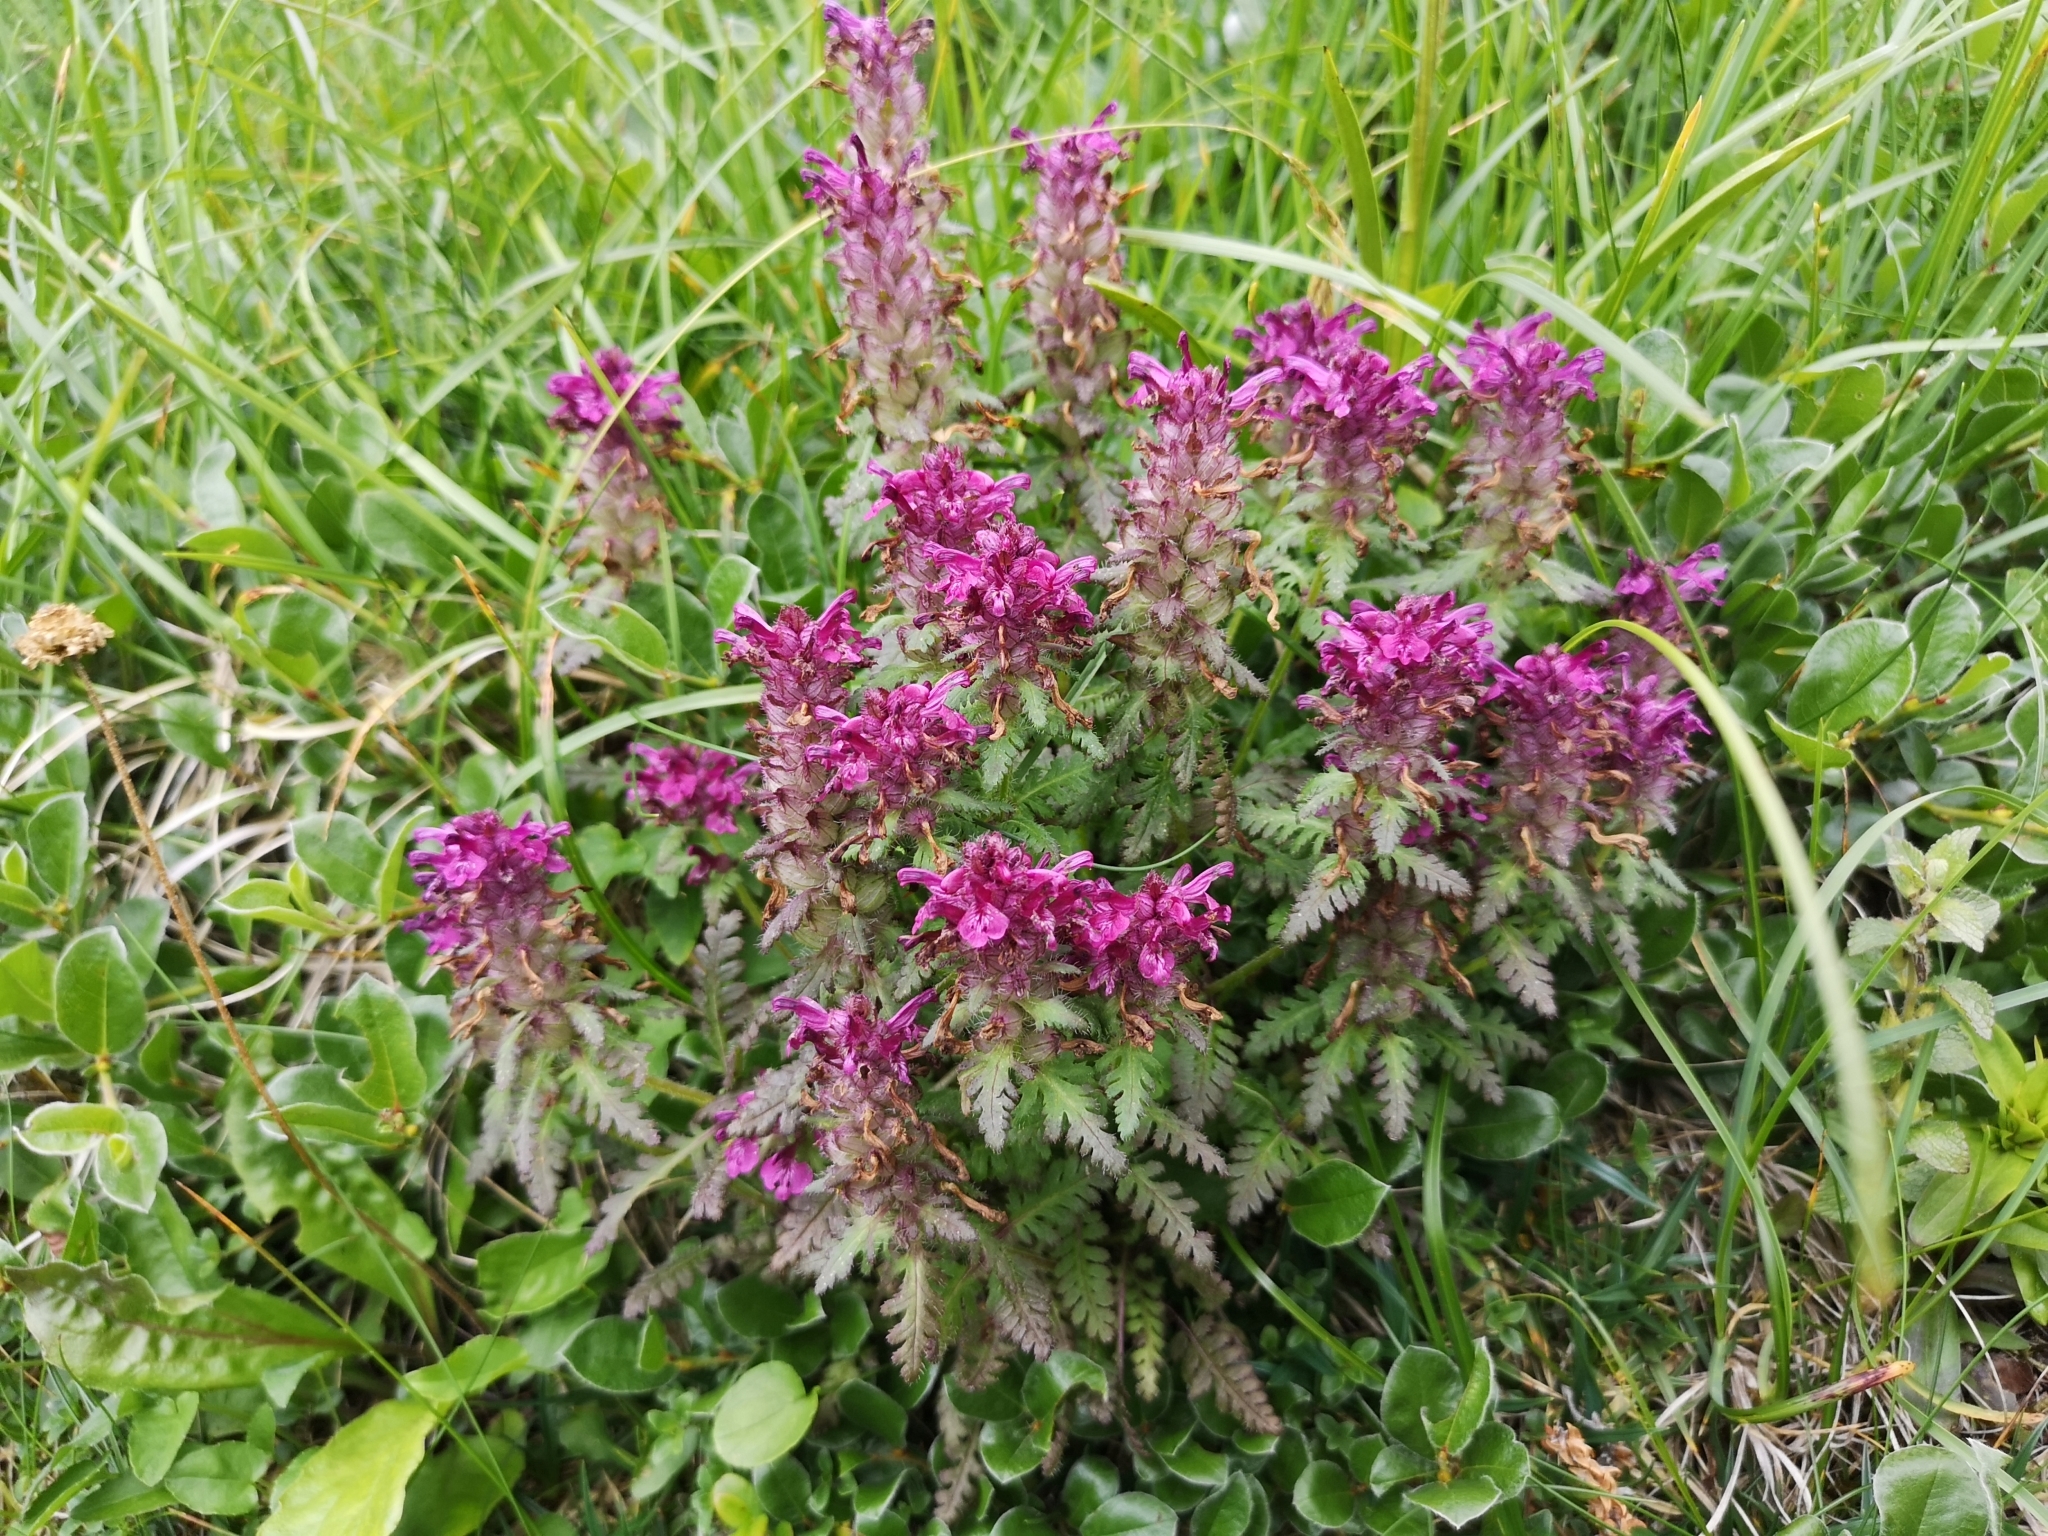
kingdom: Plantae
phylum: Tracheophyta
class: Magnoliopsida
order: Lamiales
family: Orobanchaceae
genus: Pedicularis
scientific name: Pedicularis verticillata
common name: Whorled lousewort
